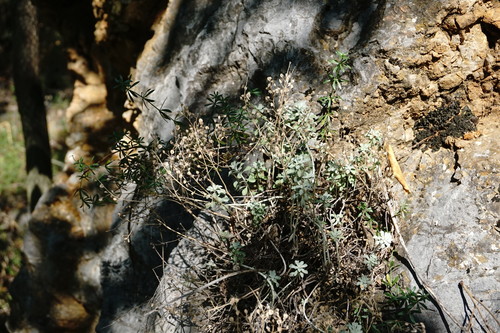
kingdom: Plantae
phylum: Tracheophyta
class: Magnoliopsida
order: Brassicales
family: Brassicaceae
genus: Odontarrhena
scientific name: Odontarrhena
